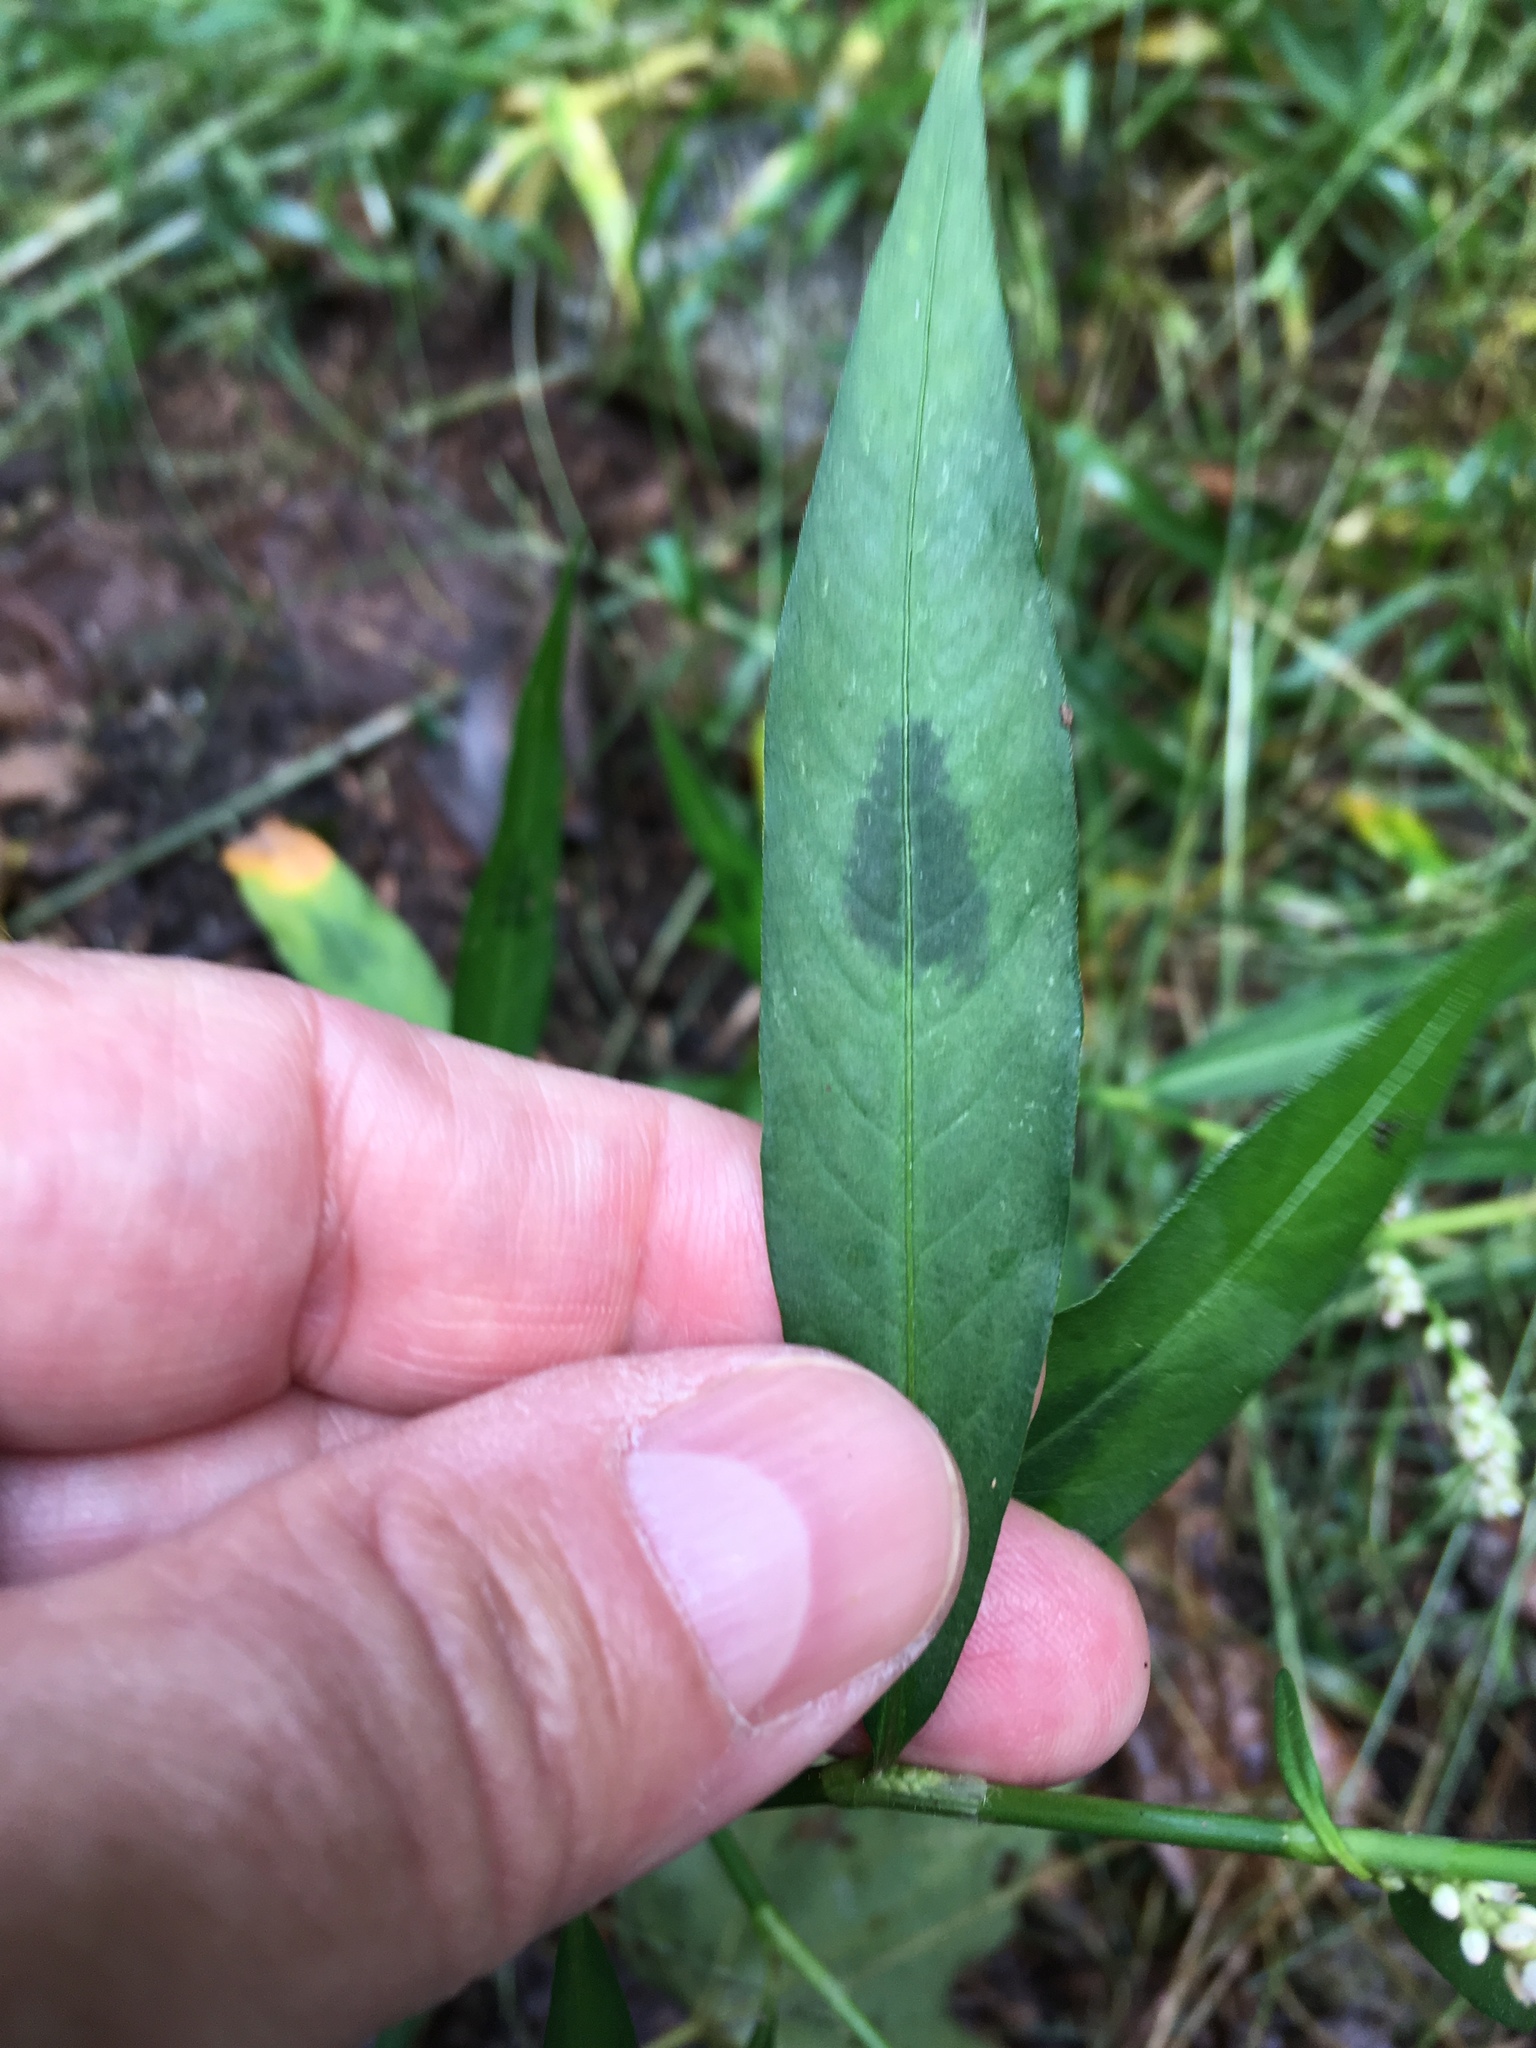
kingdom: Plantae
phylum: Tracheophyta
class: Magnoliopsida
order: Caryophyllales
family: Polygonaceae
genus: Persicaria
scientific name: Persicaria maculosa
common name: Redshank
